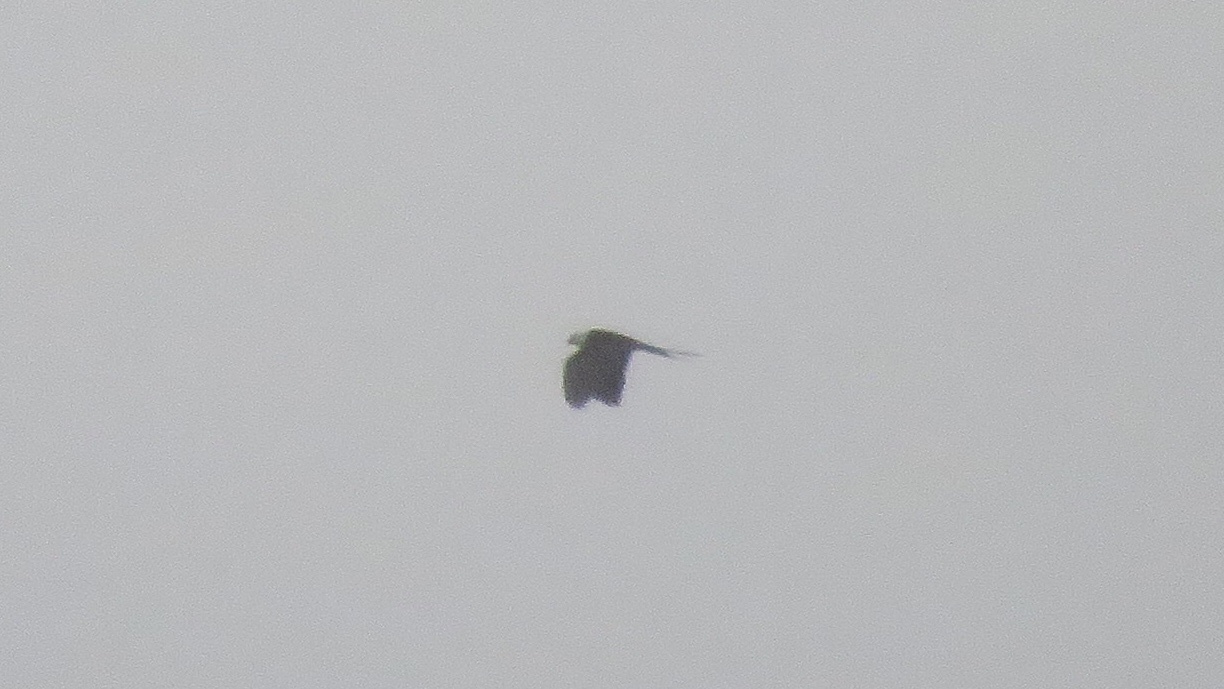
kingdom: Animalia
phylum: Chordata
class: Aves
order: Accipitriformes
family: Accipitridae
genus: Elanoides
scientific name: Elanoides forficatus
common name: Swallow-tailed kite
